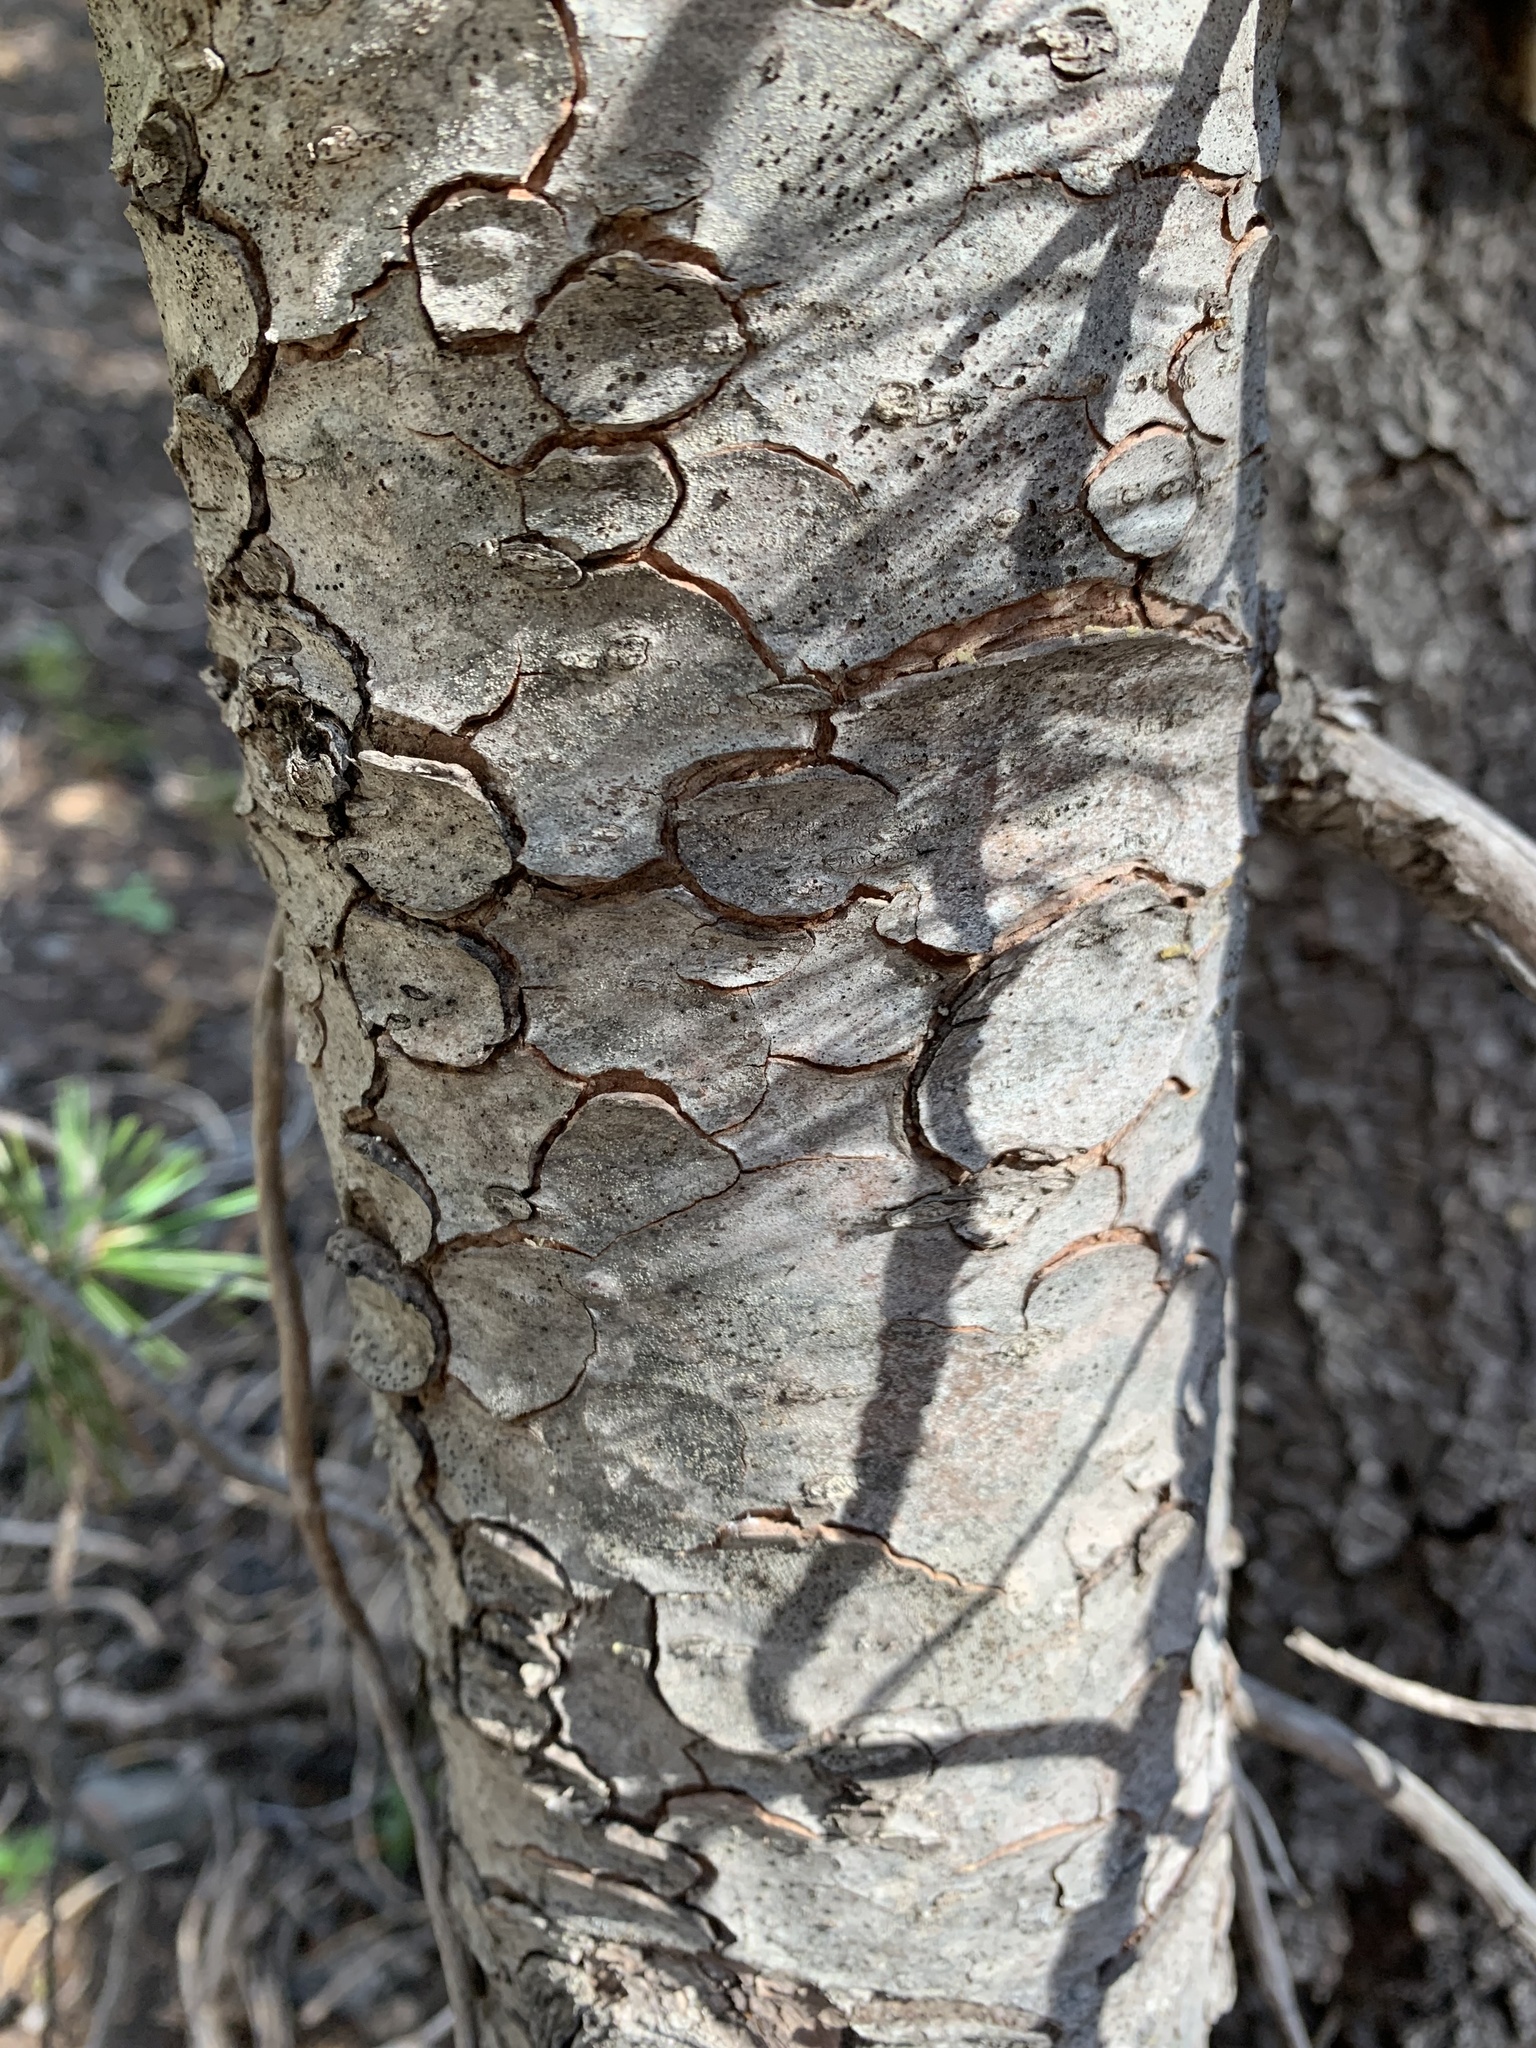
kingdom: Plantae
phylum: Tracheophyta
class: Pinopsida
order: Pinales
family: Pinaceae
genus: Pinus
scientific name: Pinus albicaulis
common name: Whitebark pine
